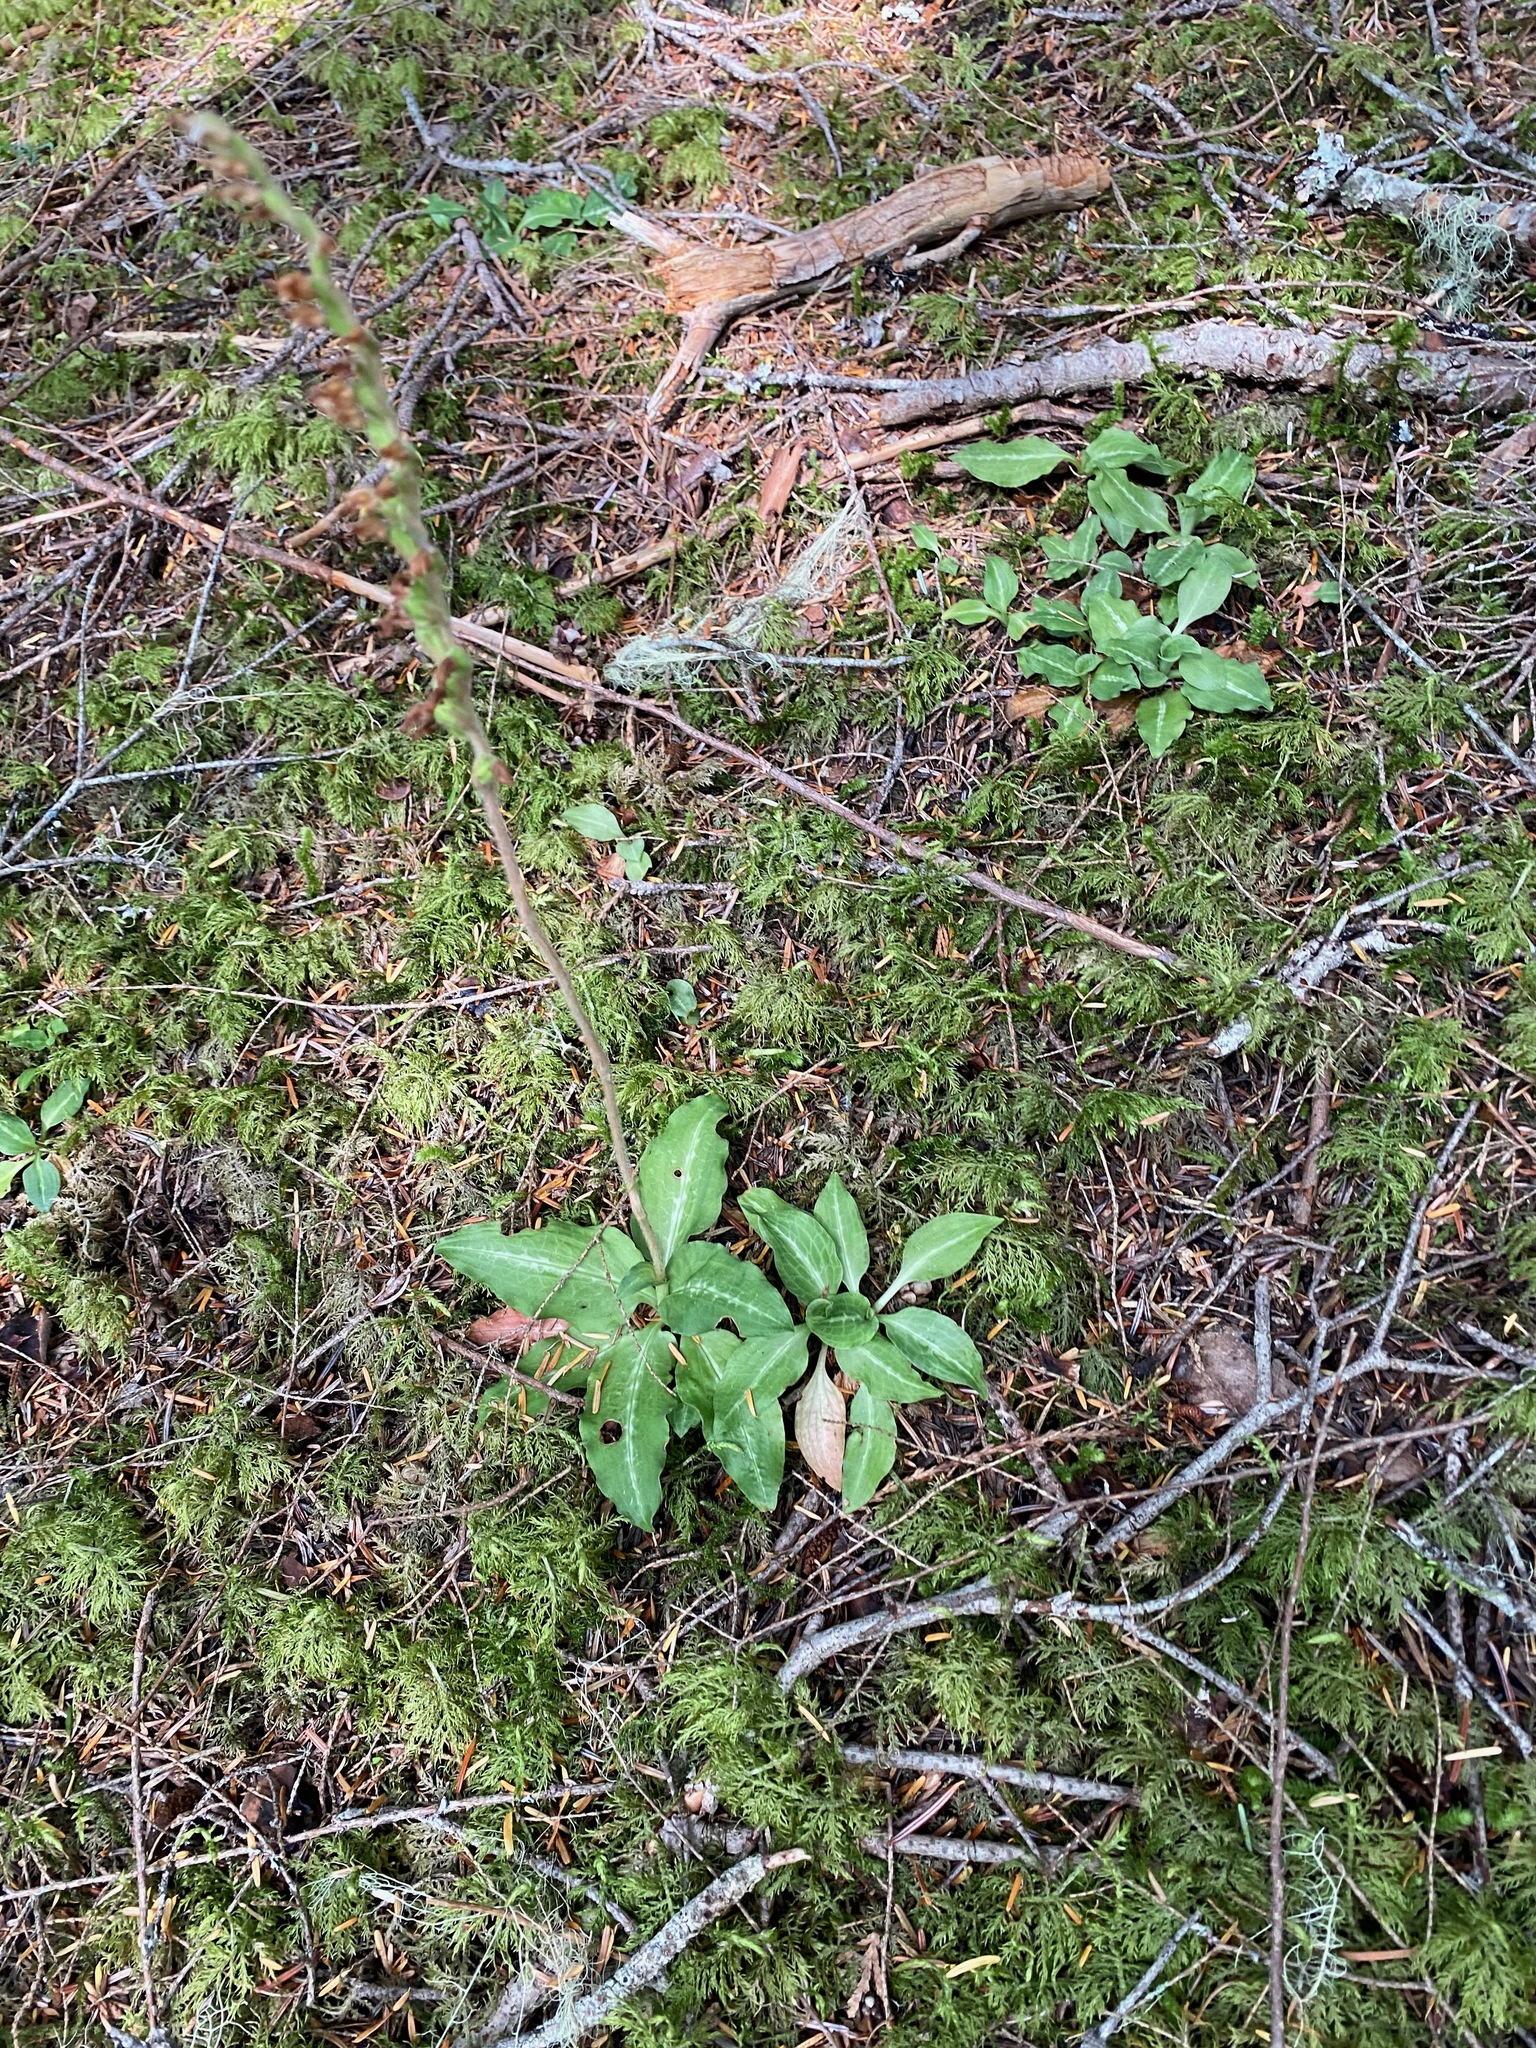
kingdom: Plantae
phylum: Tracheophyta
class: Liliopsida
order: Asparagales
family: Orchidaceae
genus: Goodyera
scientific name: Goodyera oblongifolia
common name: Giant rattlesnake-plantain
